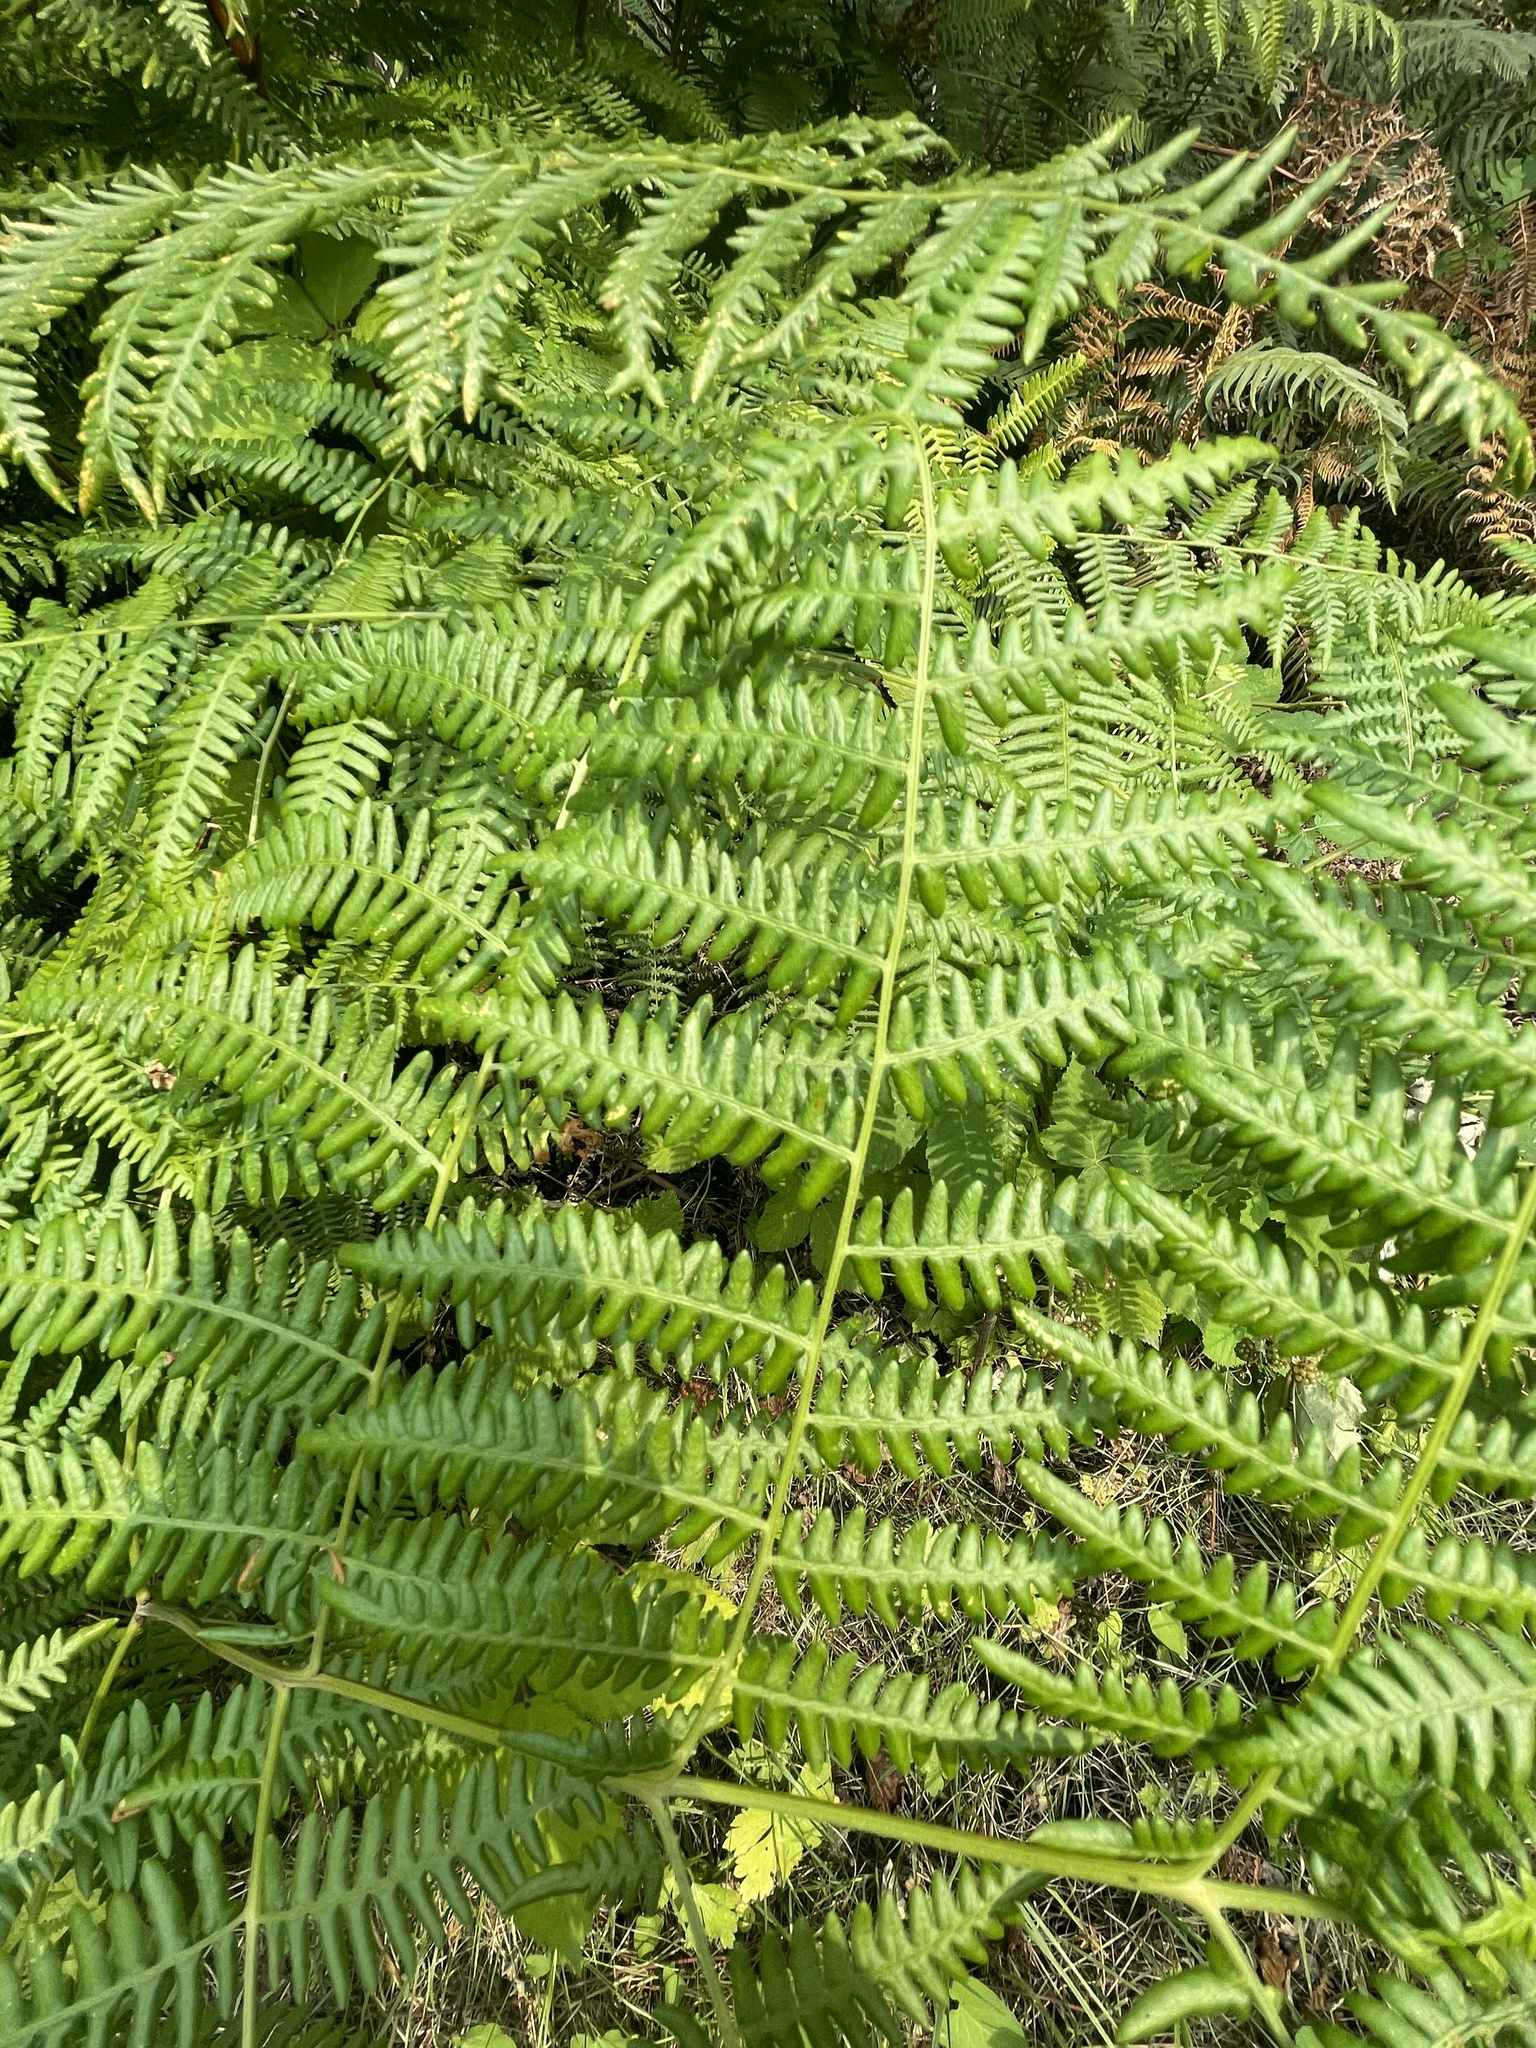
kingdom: Plantae
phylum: Tracheophyta
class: Polypodiopsida
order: Polypodiales
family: Dennstaedtiaceae
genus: Pteridium
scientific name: Pteridium aquilinum
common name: Bracken
